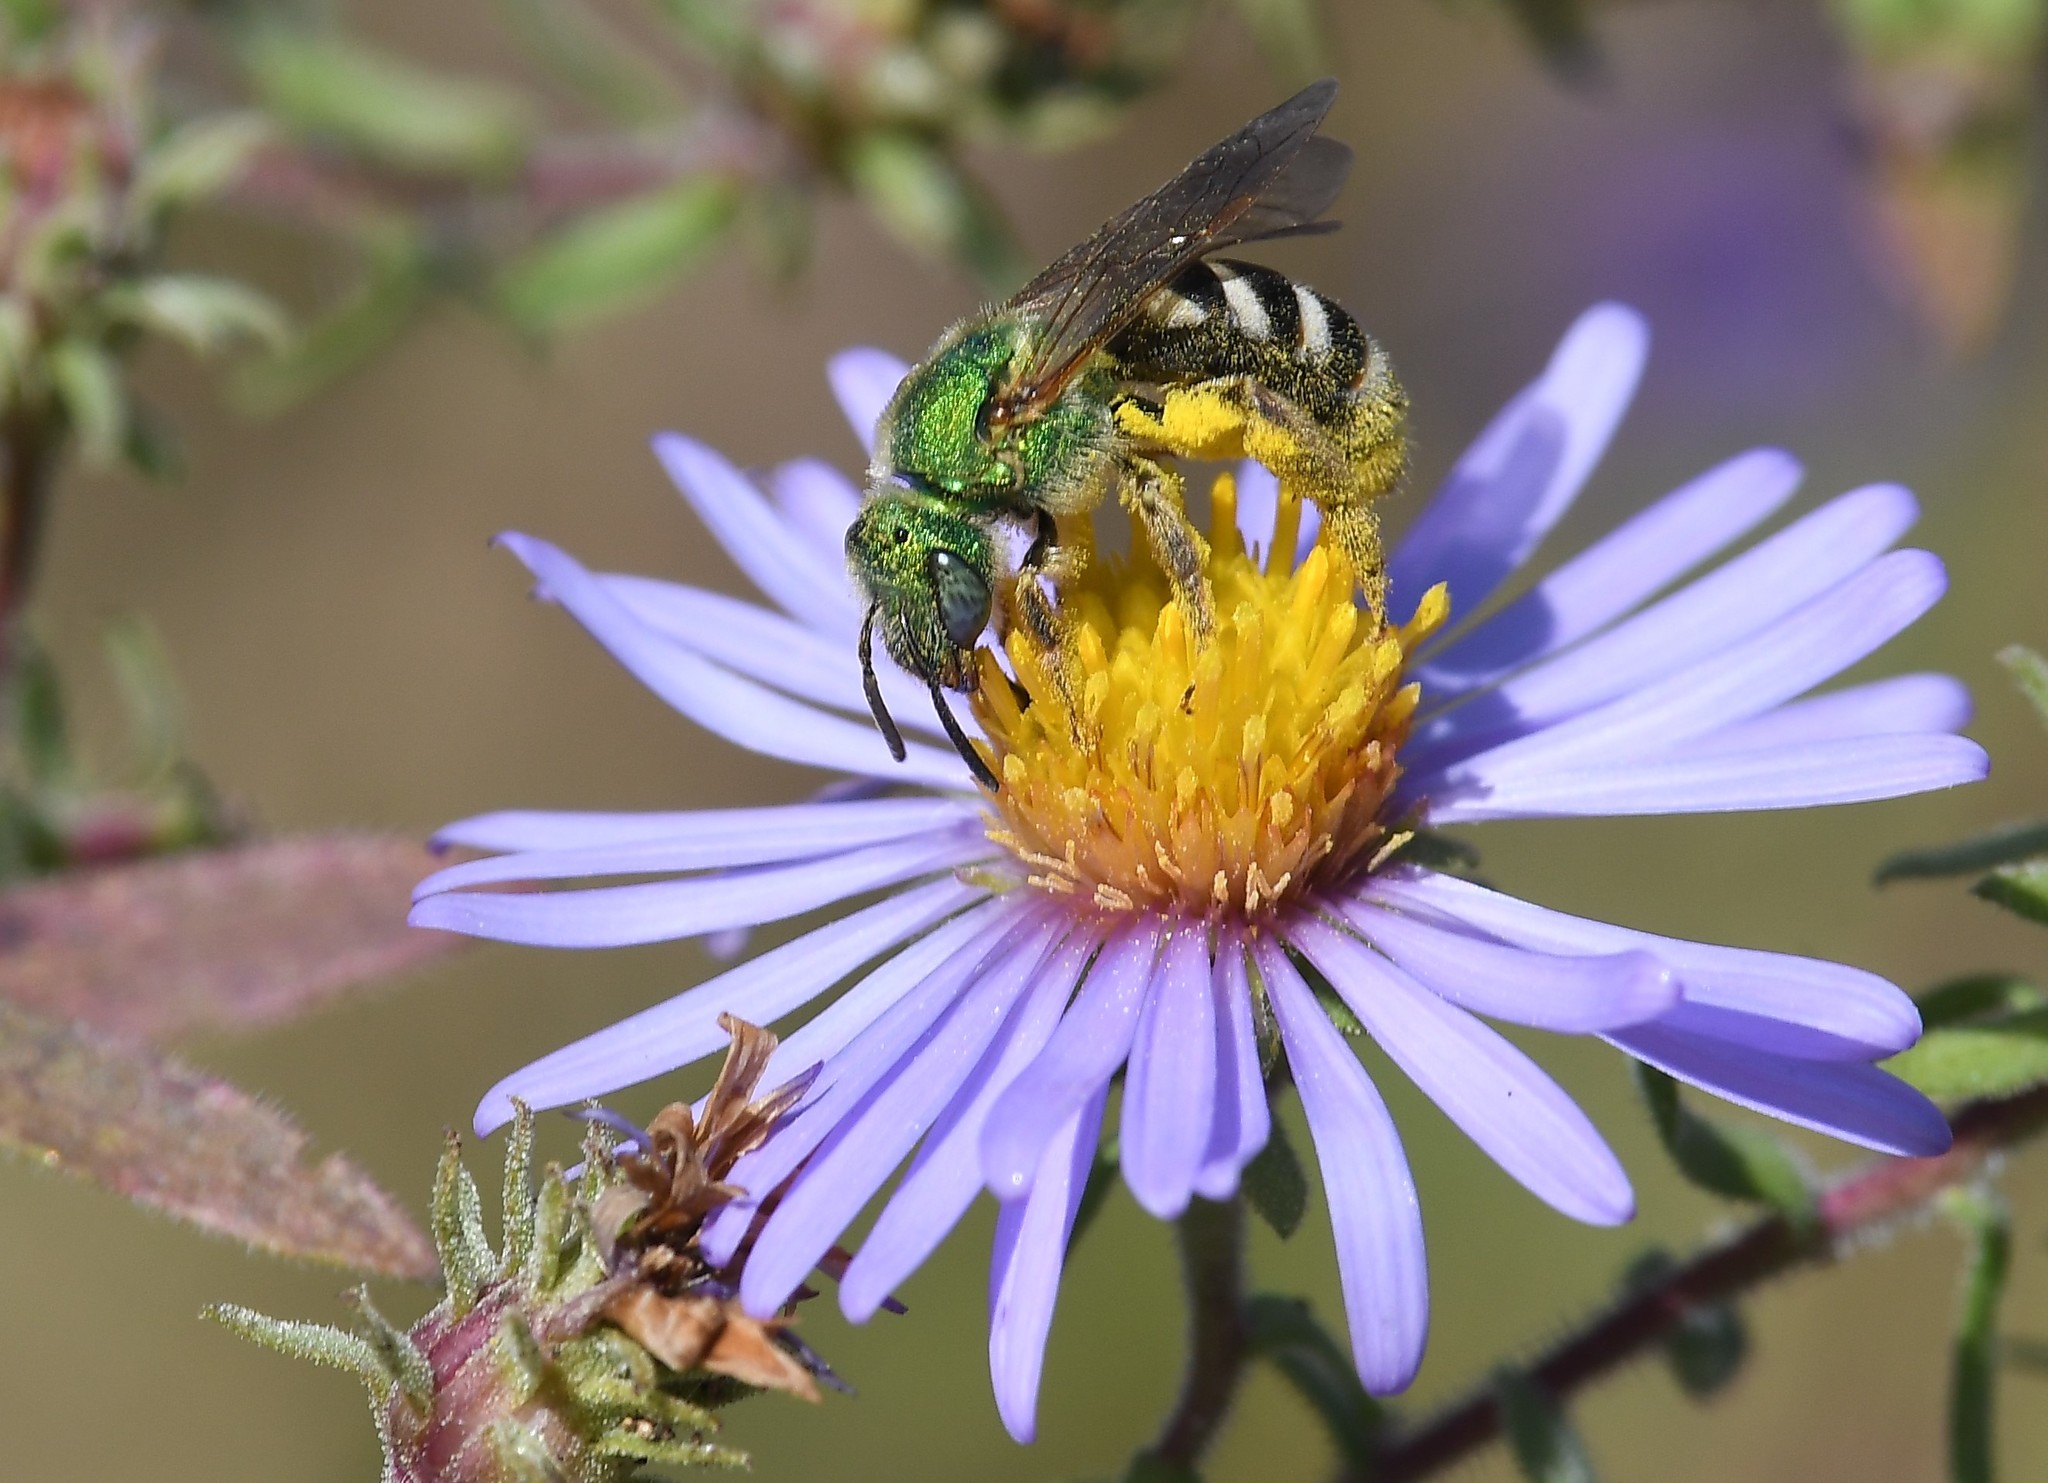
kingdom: Animalia
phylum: Arthropoda
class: Insecta
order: Hymenoptera
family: Halictidae
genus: Agapostemon
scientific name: Agapostemon virescens
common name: Bicolored striped sweat bee
